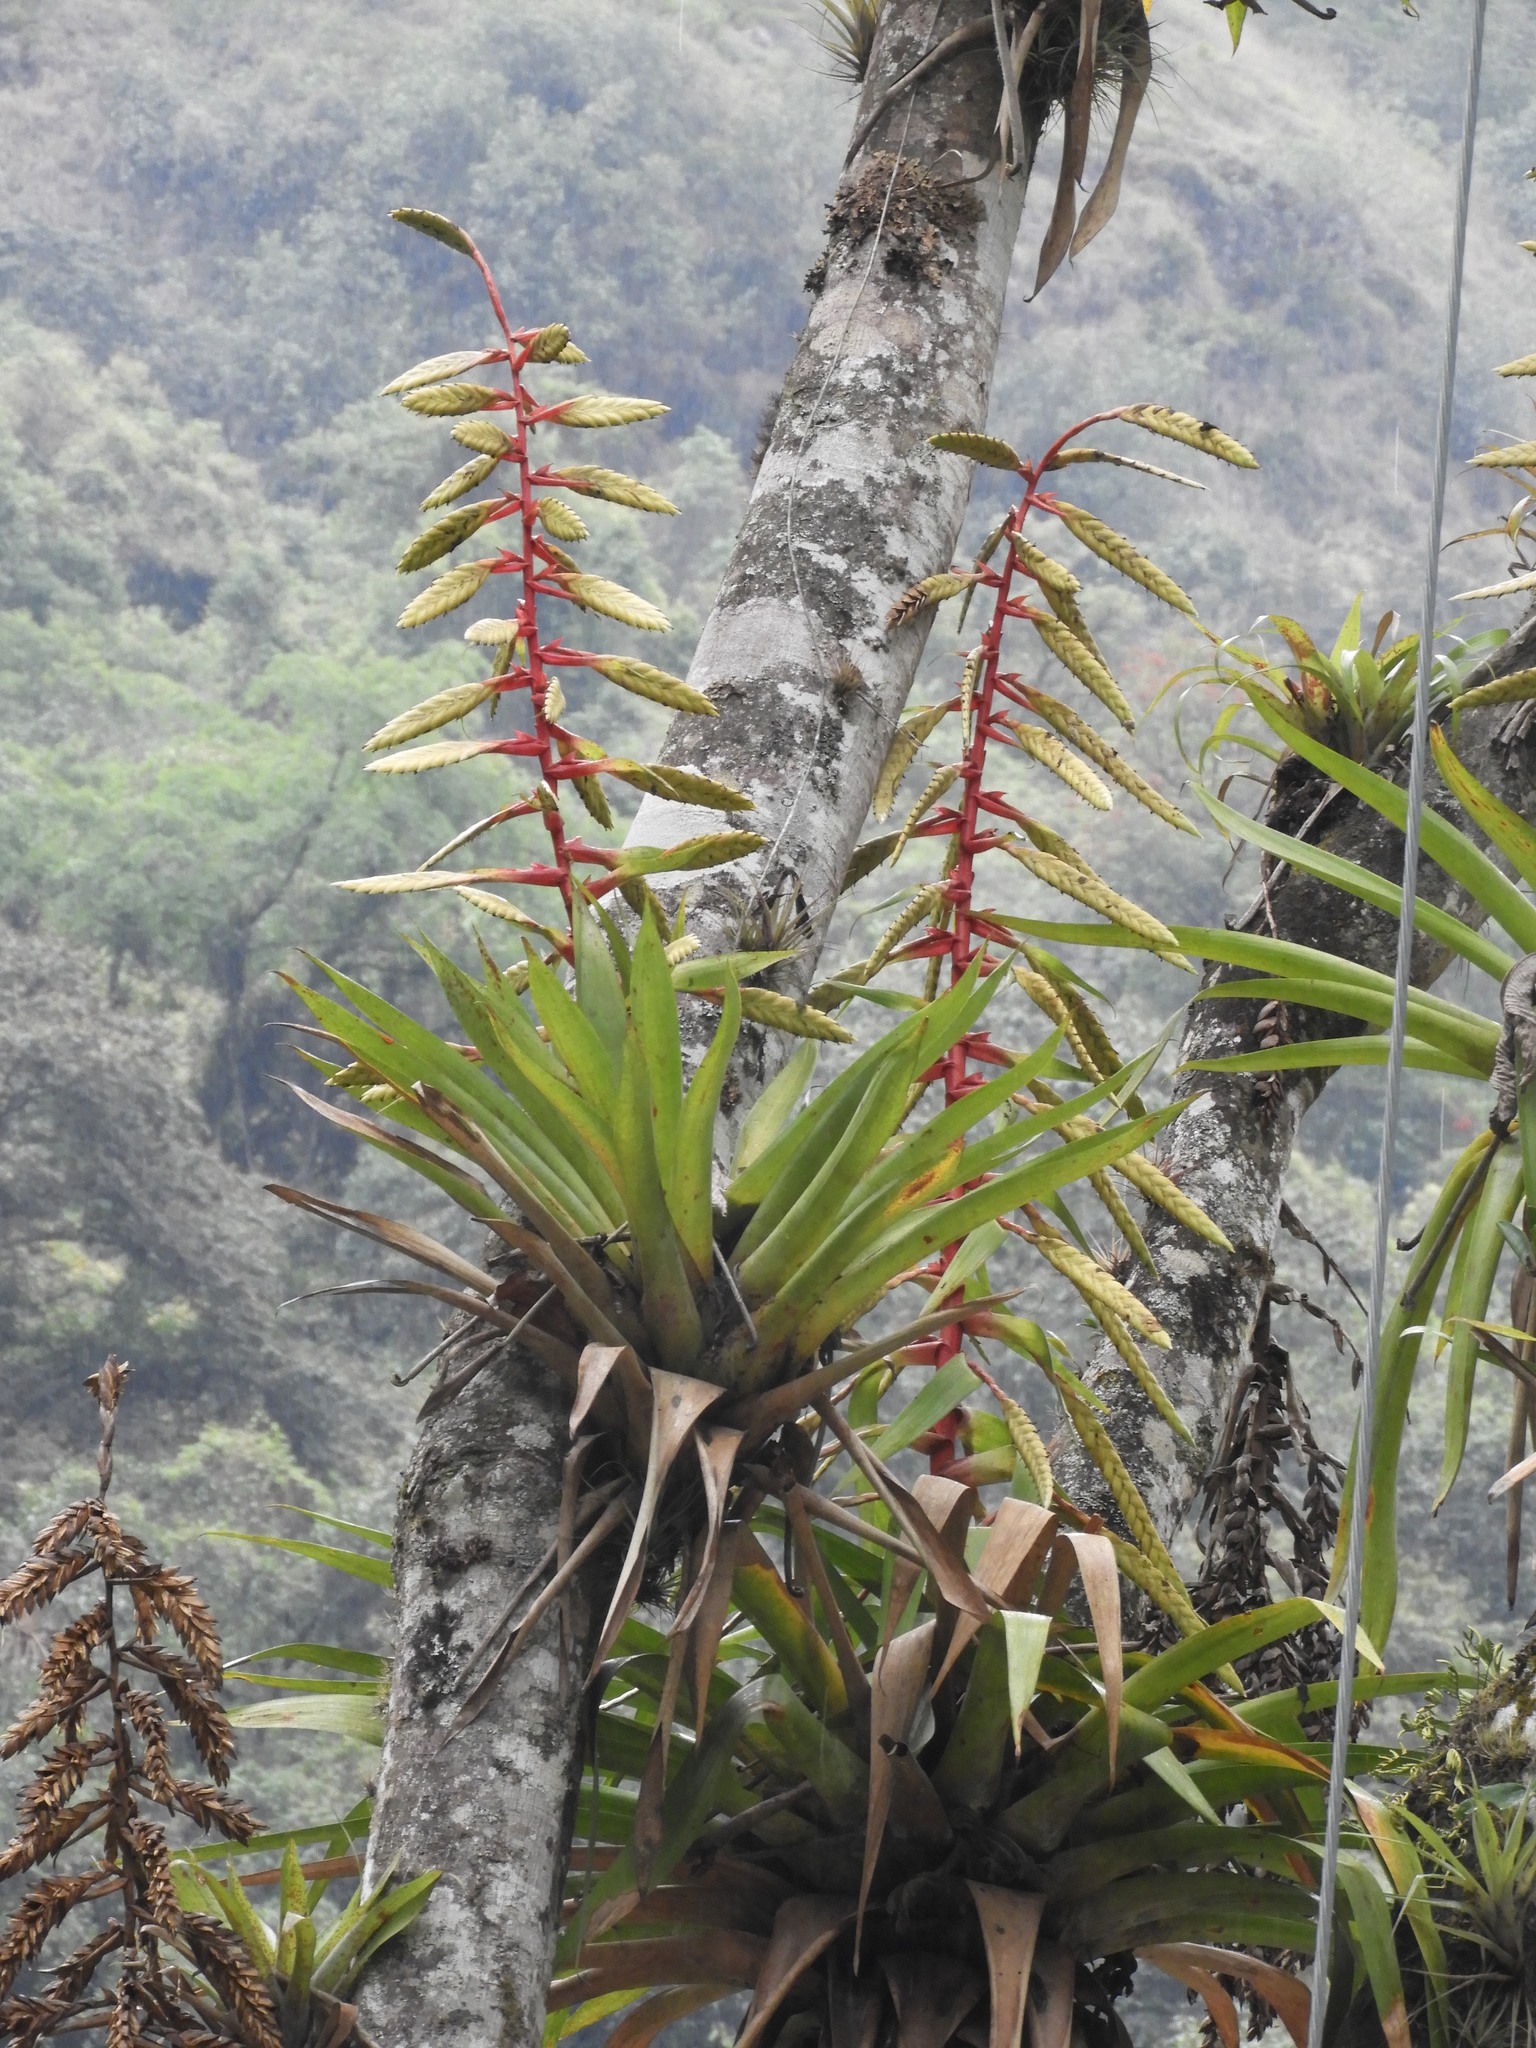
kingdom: Plantae
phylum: Tracheophyta
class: Liliopsida
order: Poales
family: Bromeliaceae
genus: Tillandsia
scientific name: Tillandsia fendleri
